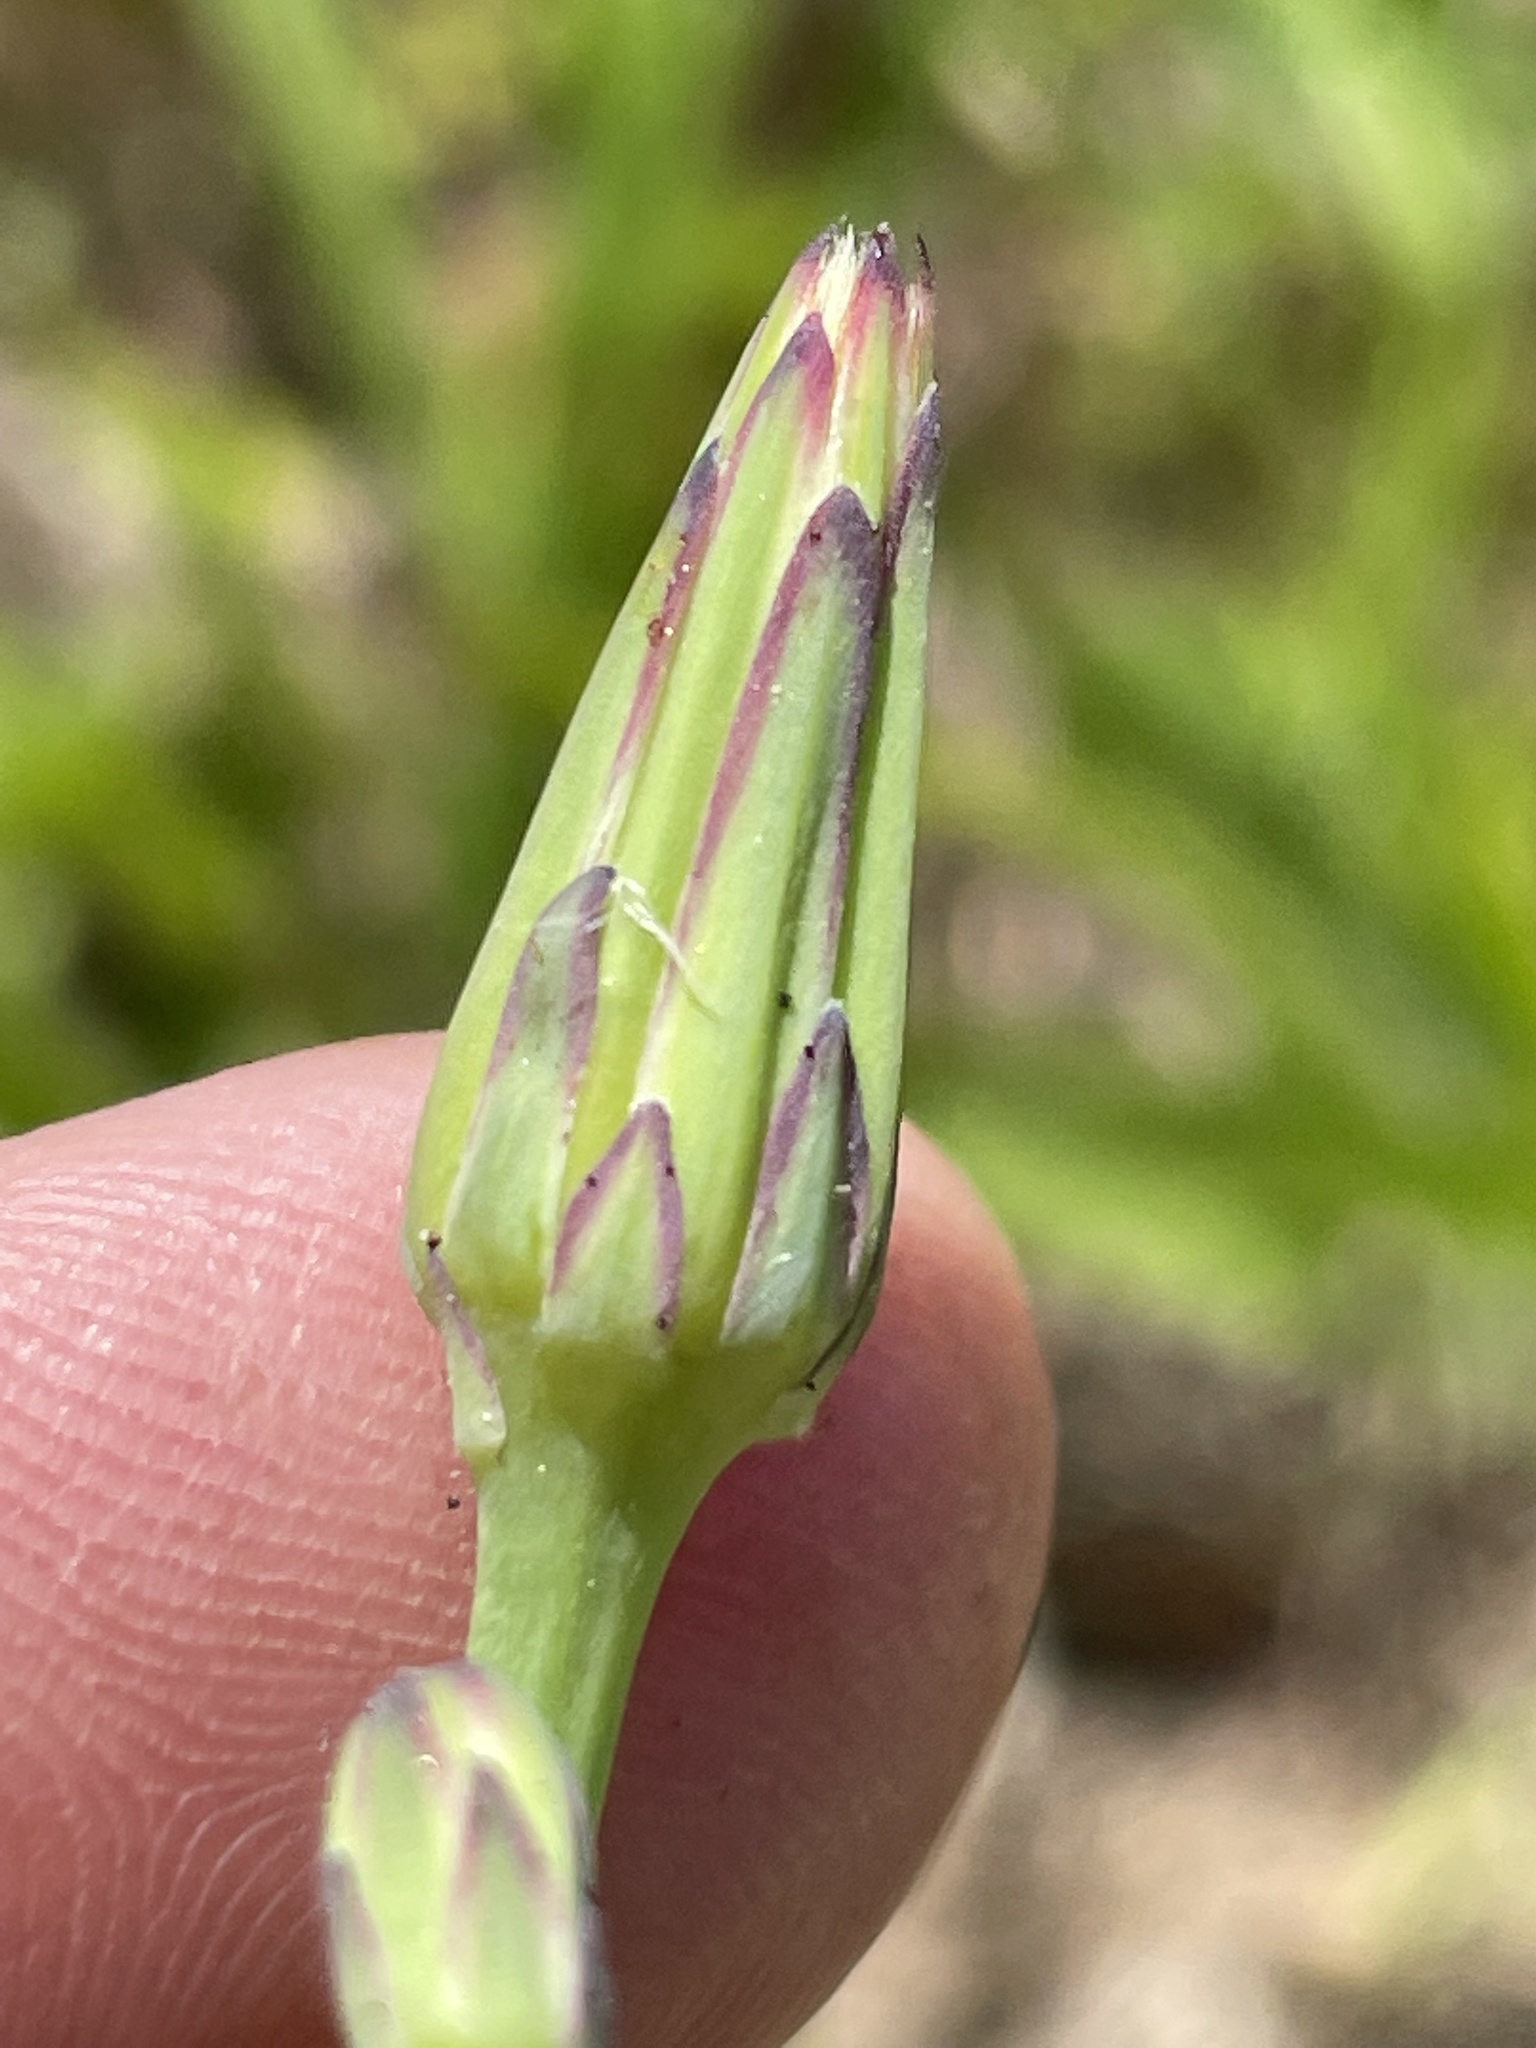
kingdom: Plantae
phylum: Tracheophyta
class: Magnoliopsida
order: Asterales
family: Asteraceae
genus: Hypochaeris
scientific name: Hypochaeris glabra
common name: Smooth catsear
